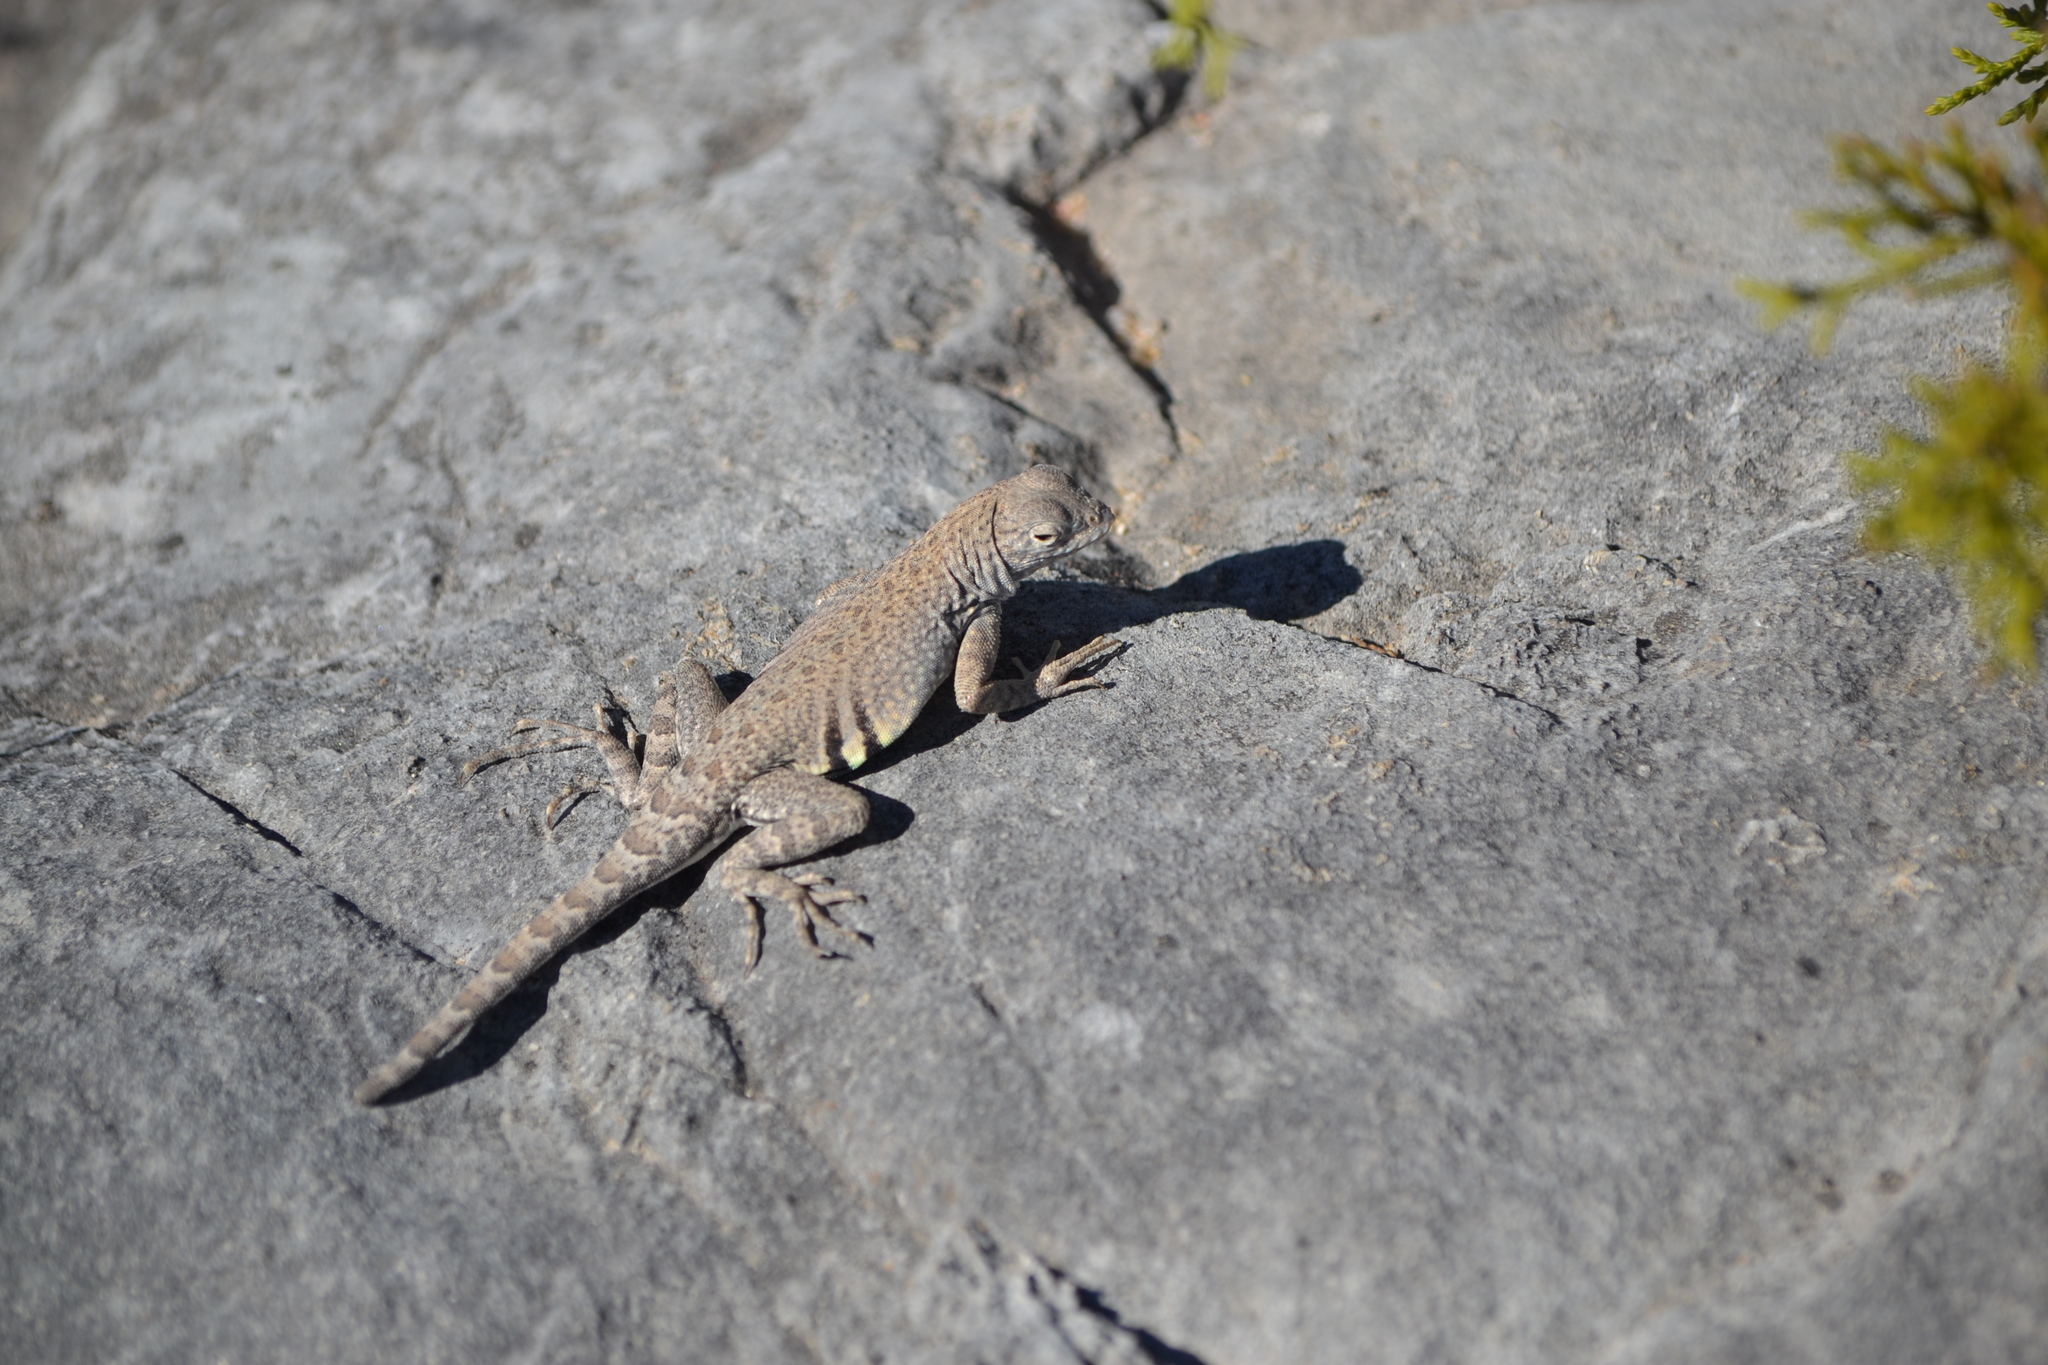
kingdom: Animalia
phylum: Chordata
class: Squamata
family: Phrynosomatidae
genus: Cophosaurus
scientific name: Cophosaurus texanus
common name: Greater earless lizard
